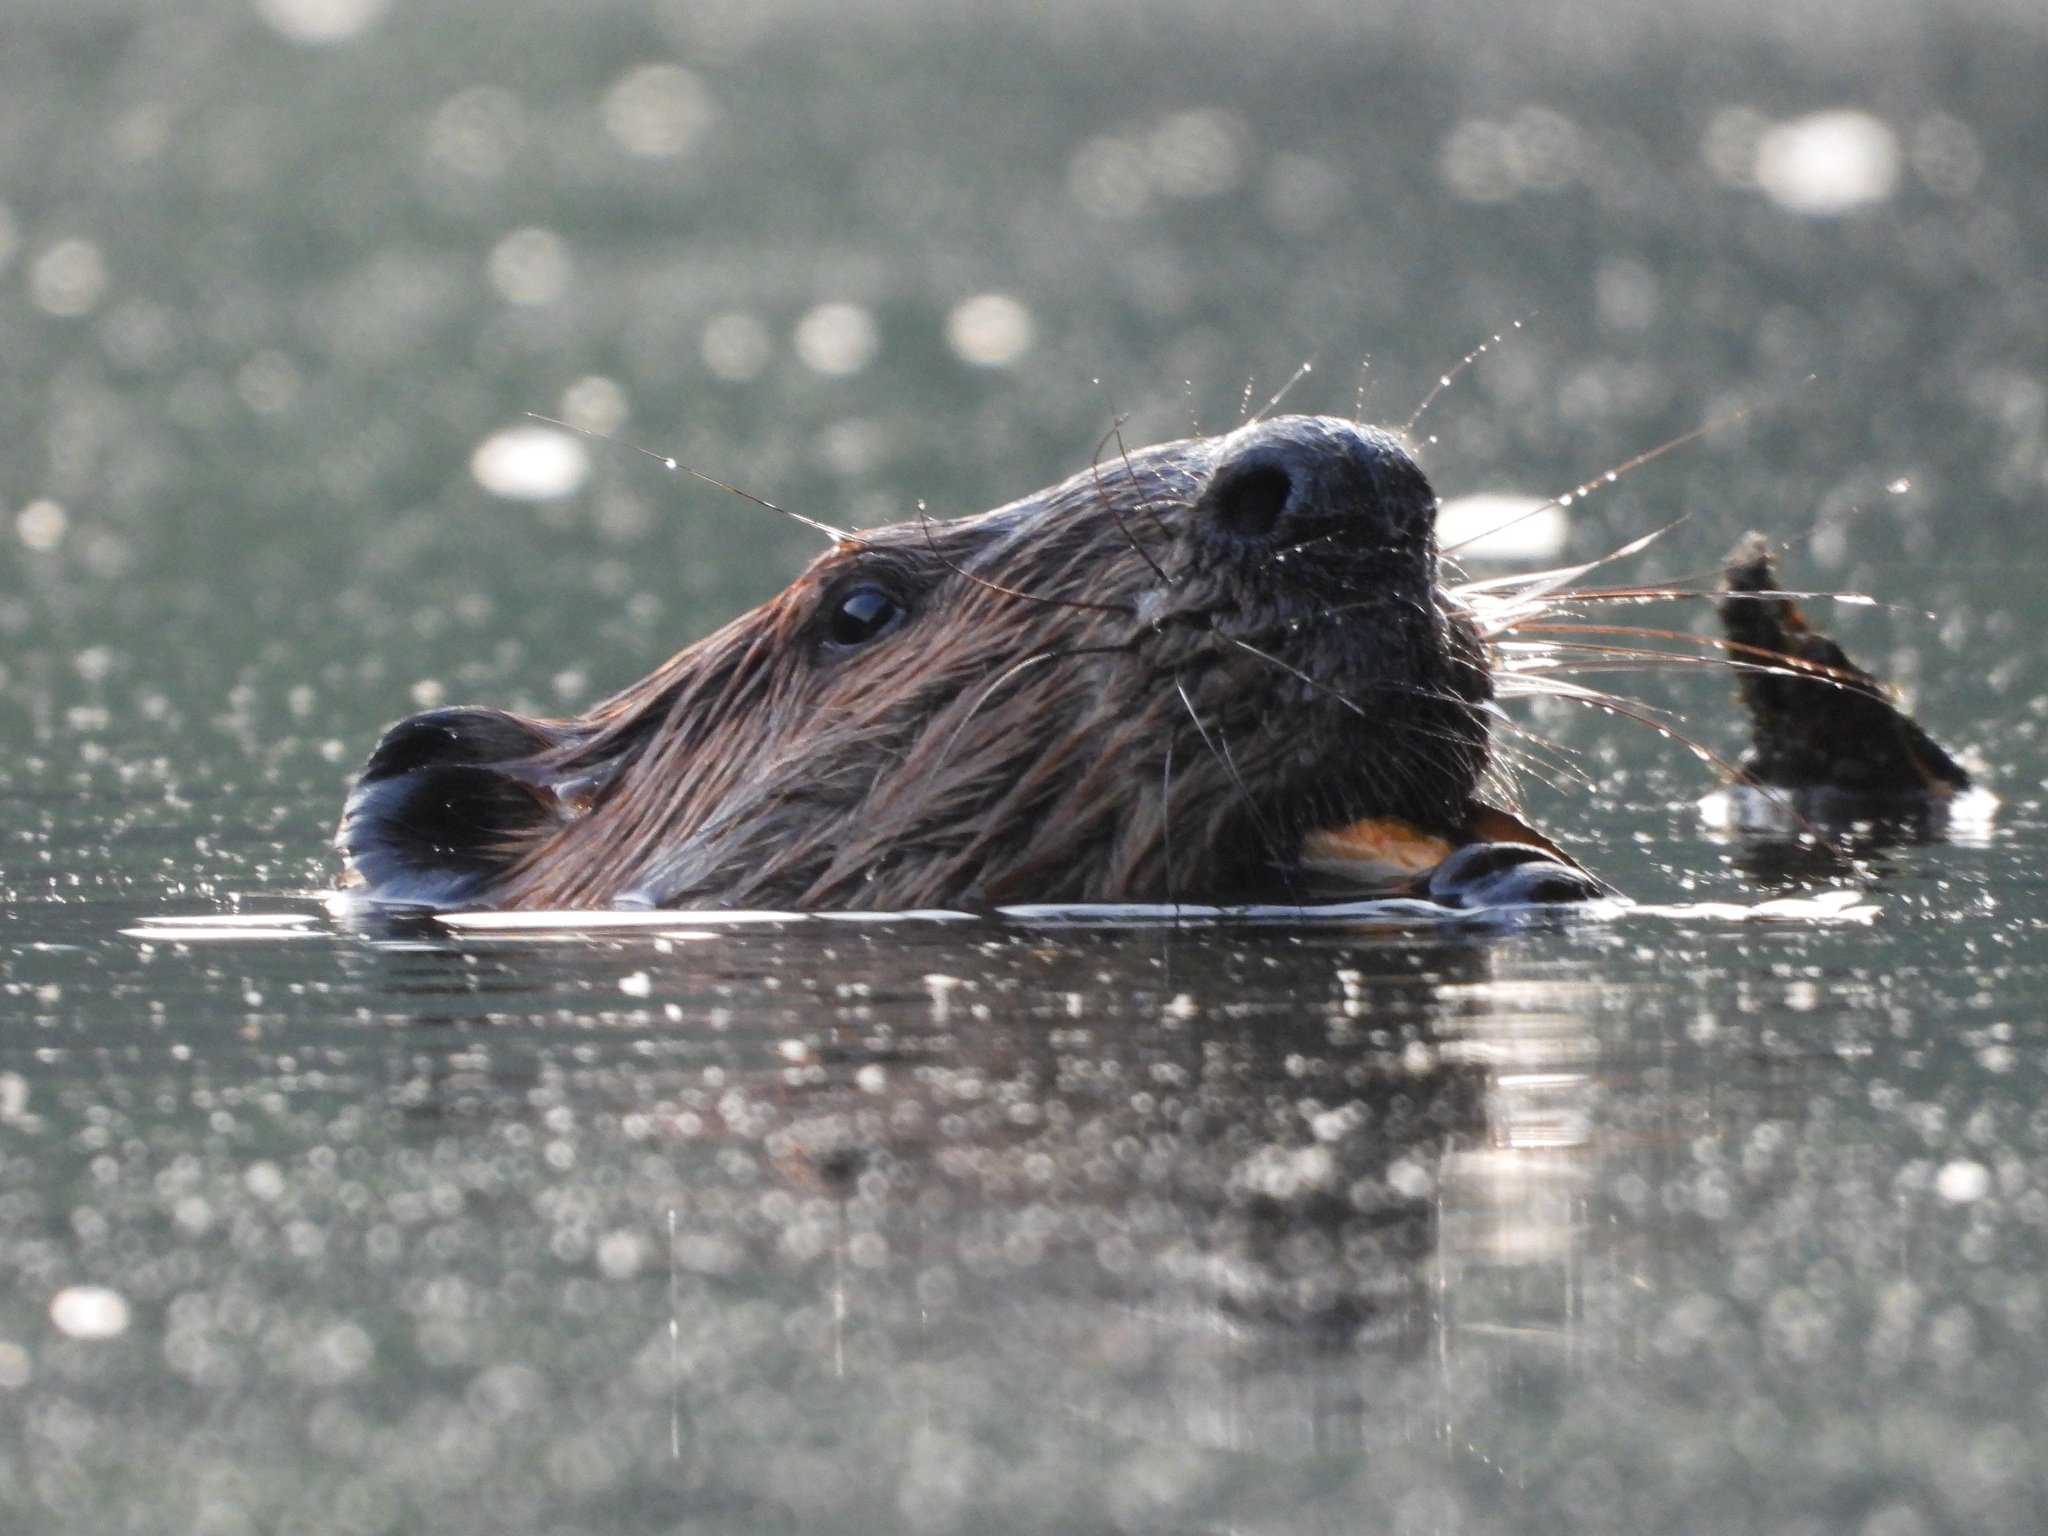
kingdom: Animalia
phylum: Chordata
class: Mammalia
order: Rodentia
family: Castoridae
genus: Castor
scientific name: Castor canadensis
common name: American beaver
